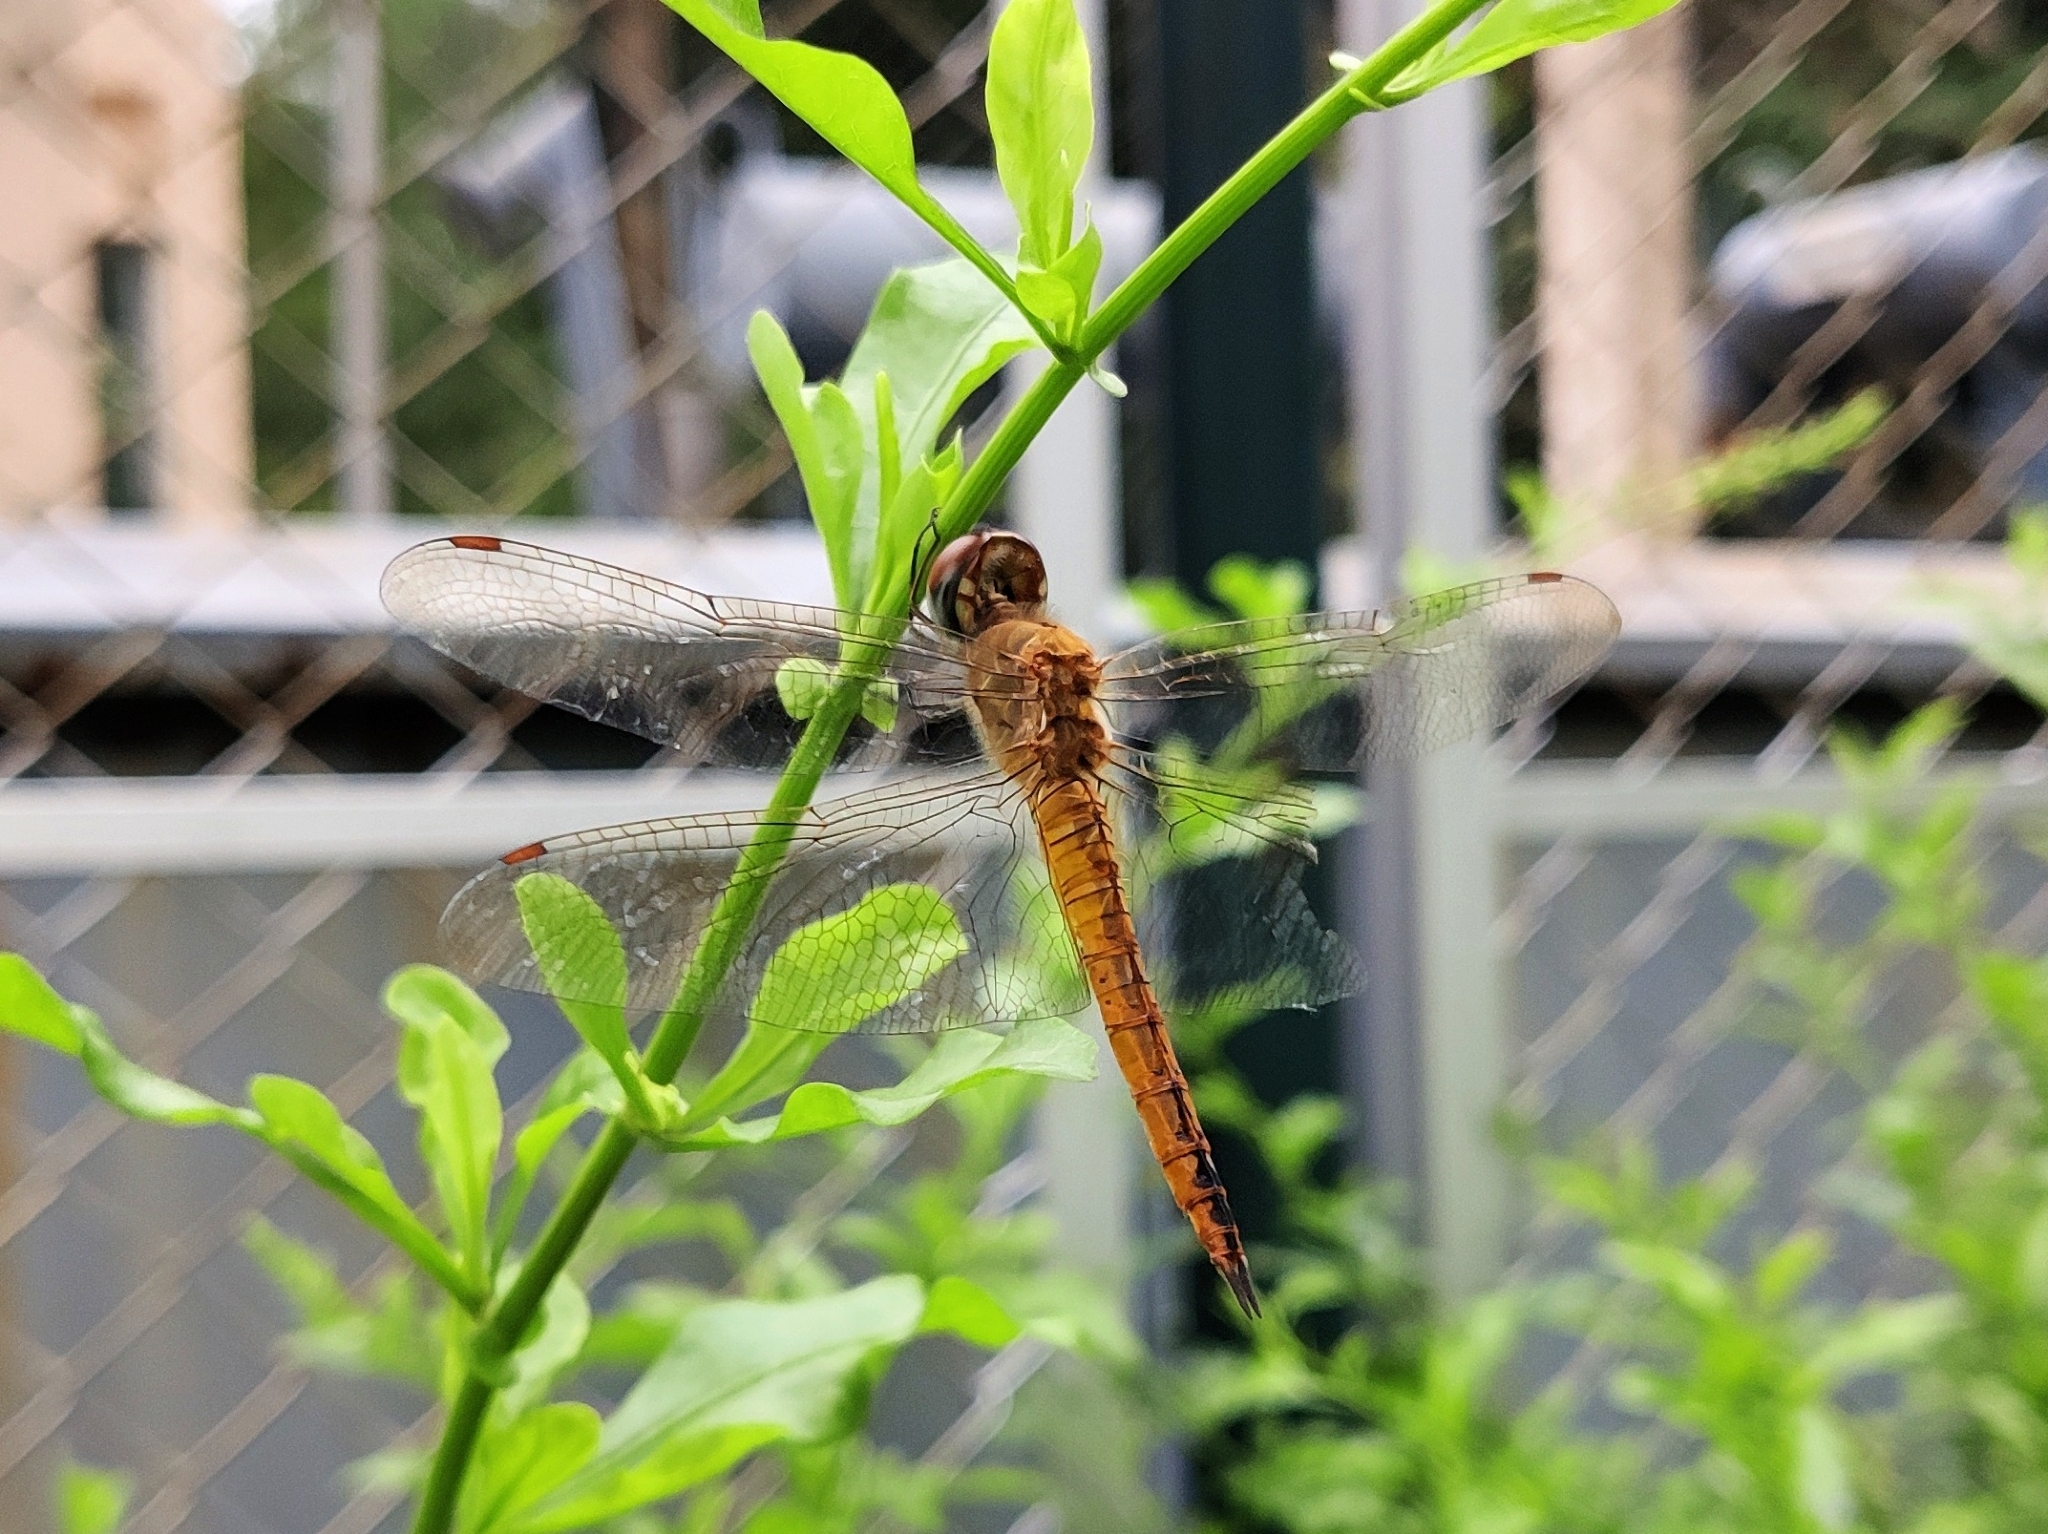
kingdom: Animalia
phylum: Arthropoda
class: Insecta
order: Odonata
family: Libellulidae
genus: Pantala
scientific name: Pantala flavescens
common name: Wandering glider
